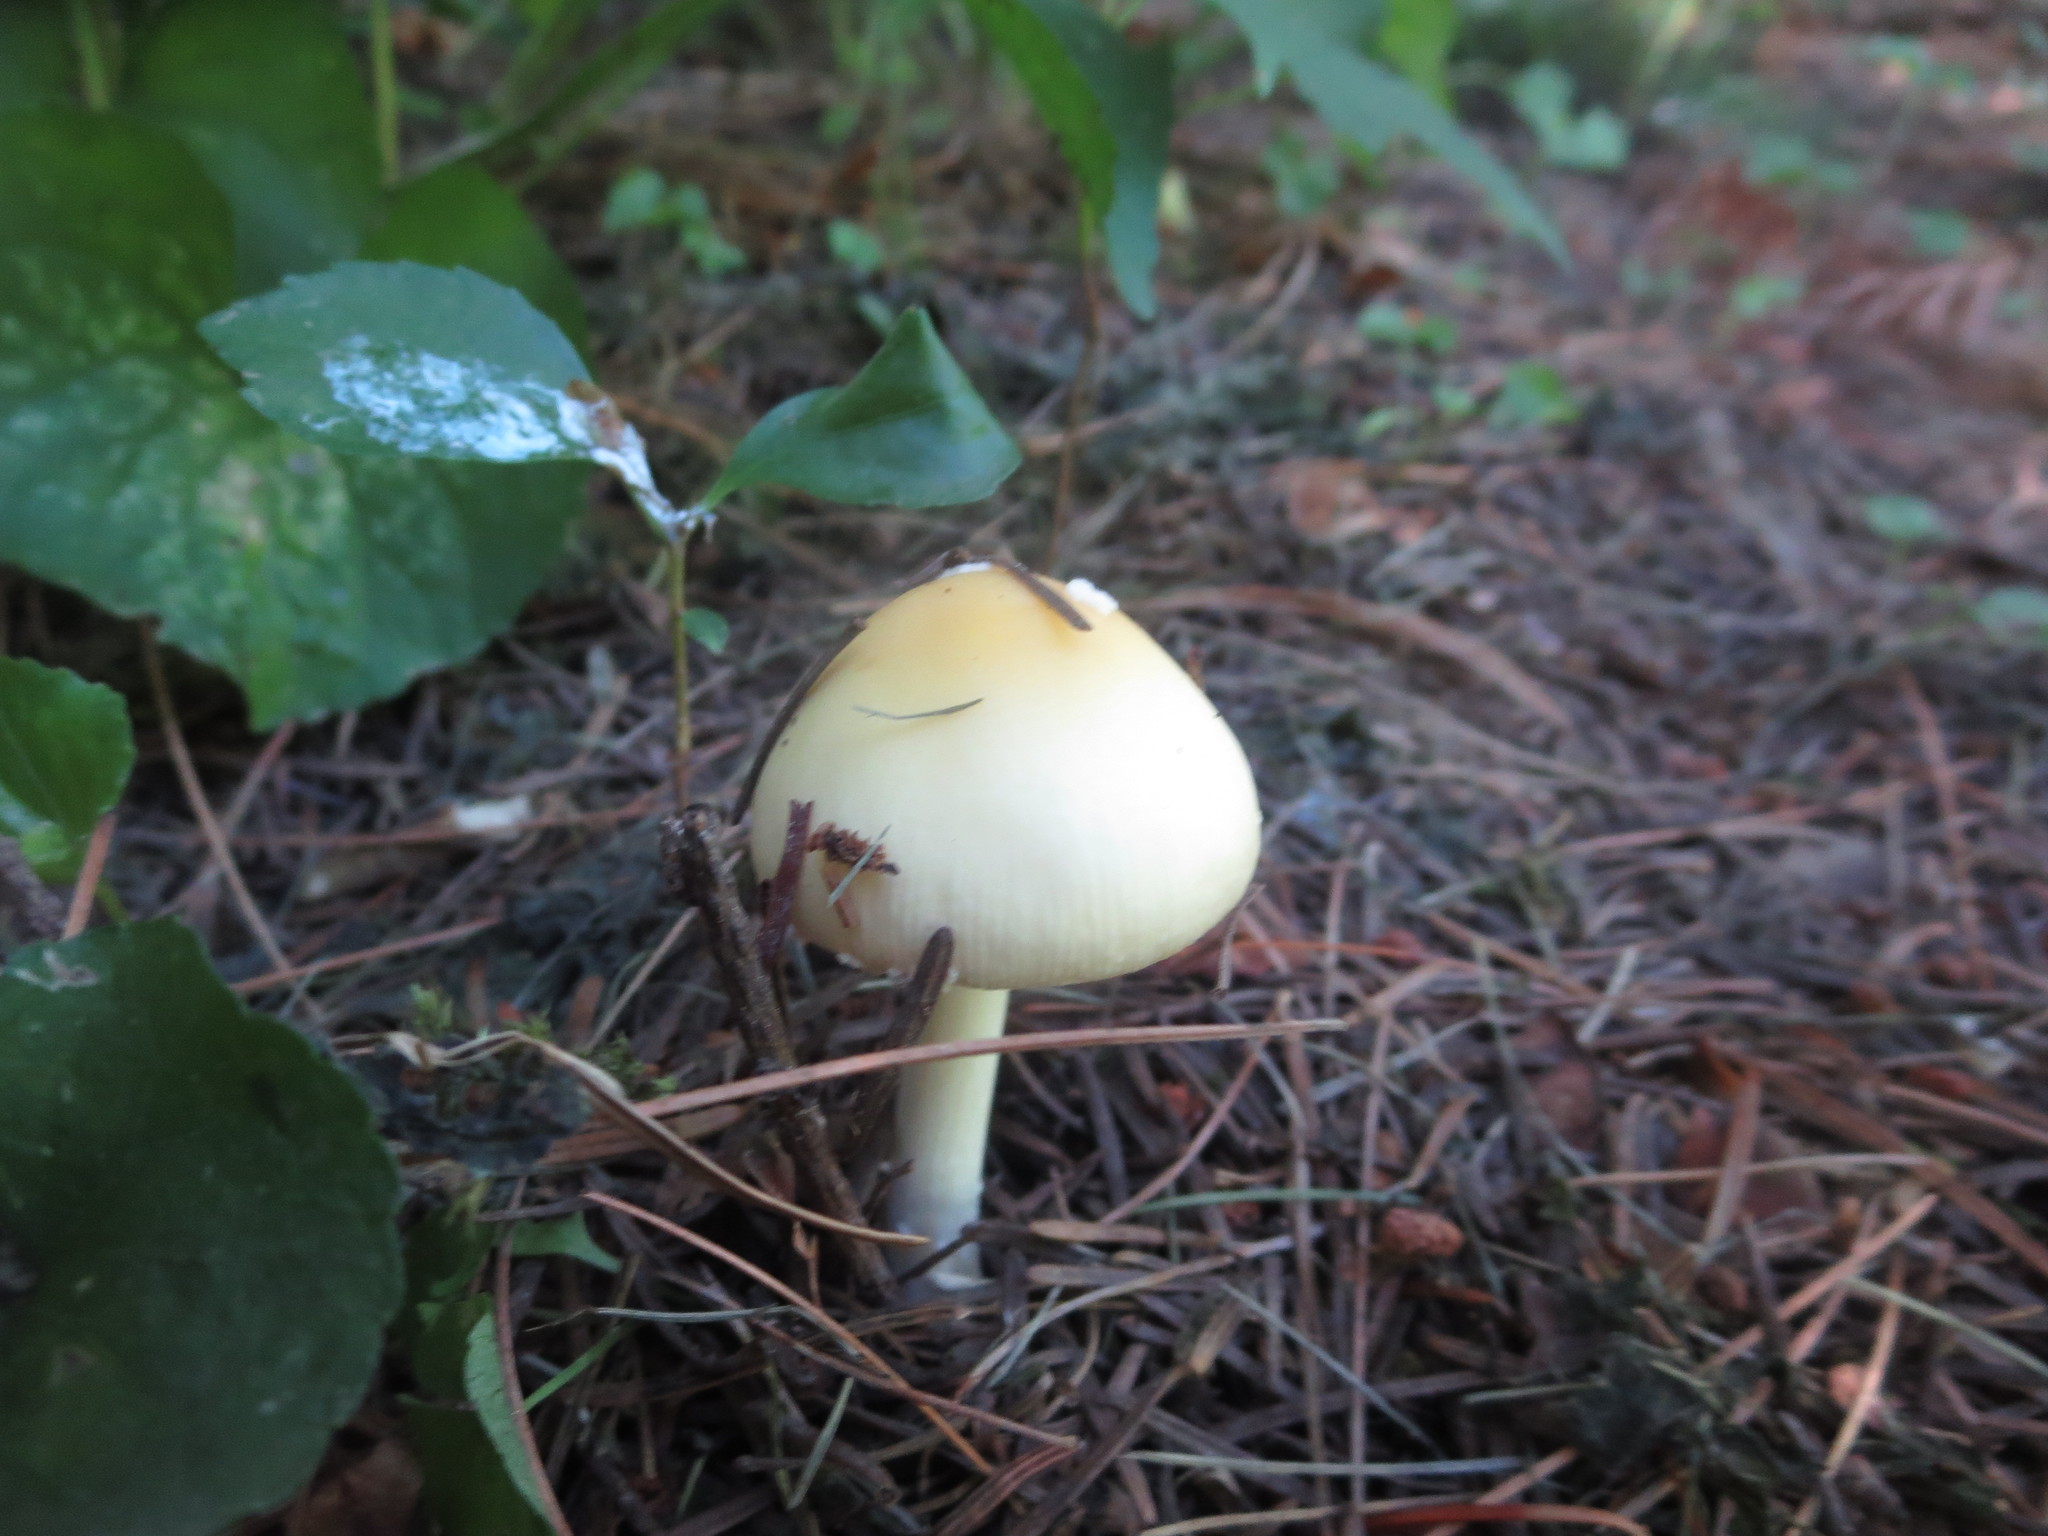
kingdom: Fungi
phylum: Basidiomycota
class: Agaricomycetes
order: Agaricales
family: Amanitaceae
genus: Amanita
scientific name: Amanita russuloides
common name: Russula-like amanita
